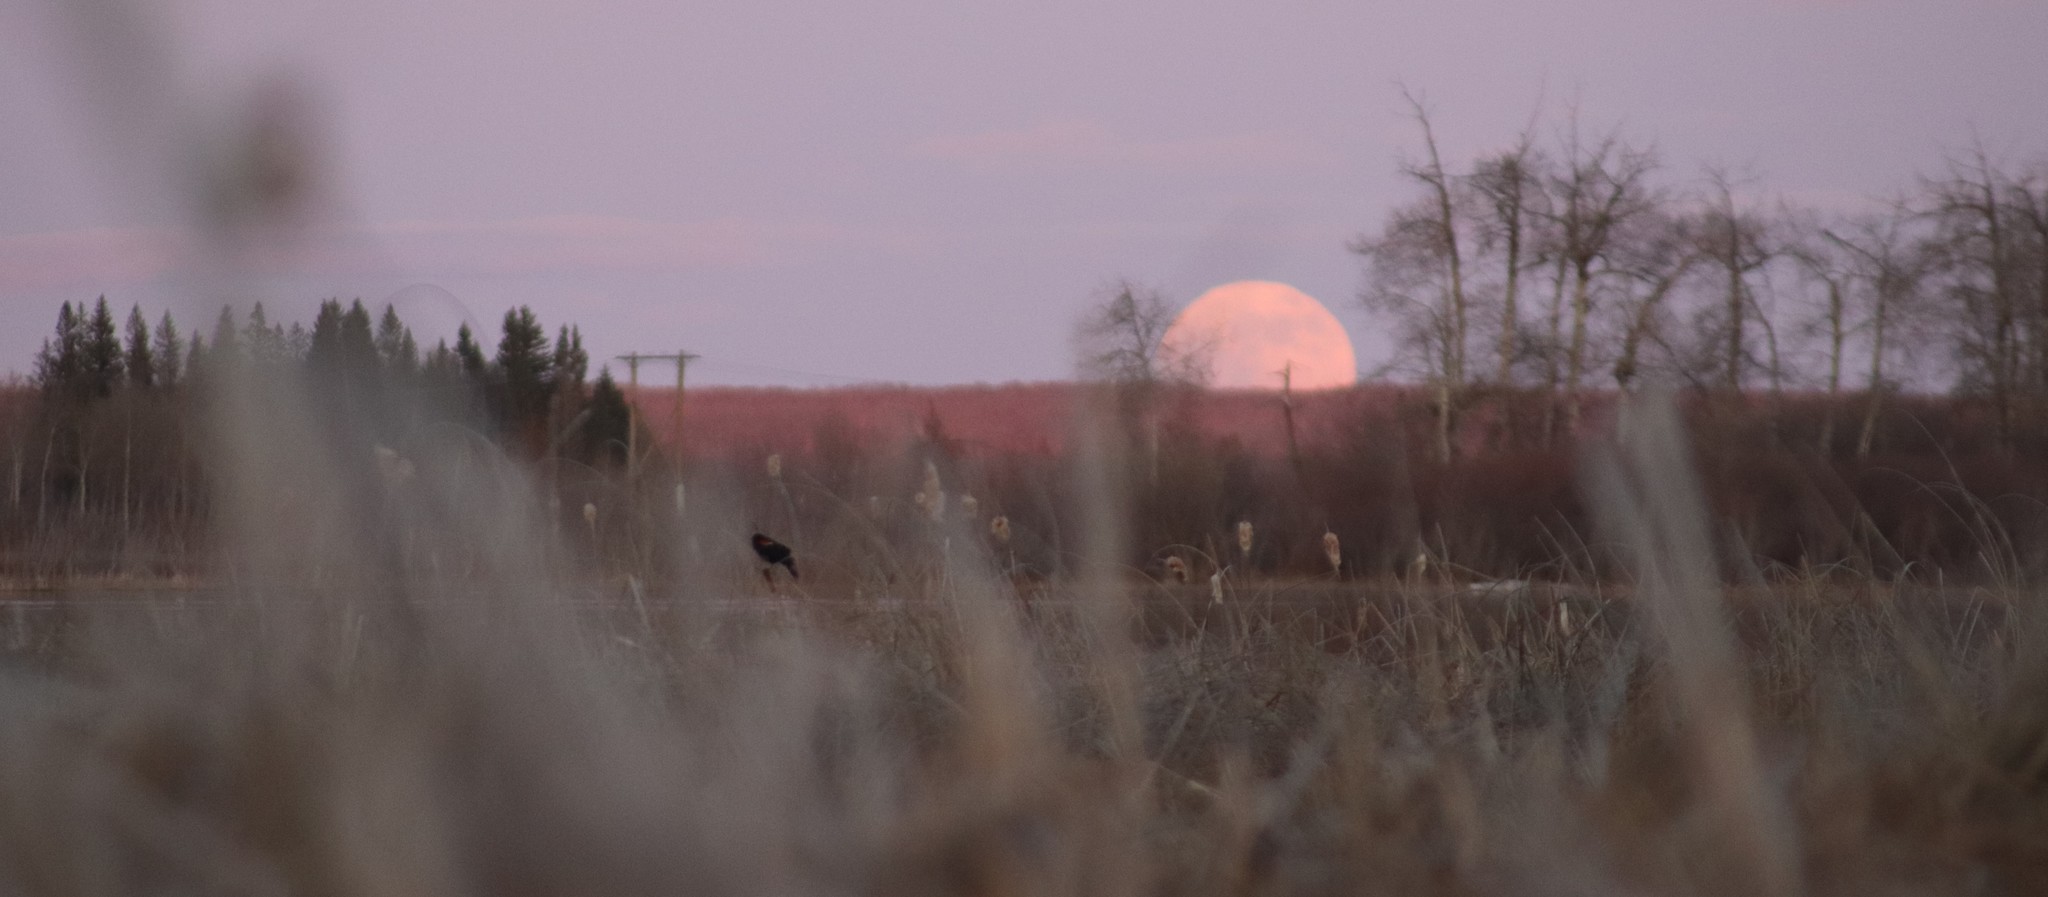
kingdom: Animalia
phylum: Chordata
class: Aves
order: Passeriformes
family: Icteridae
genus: Agelaius
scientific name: Agelaius phoeniceus
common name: Red-winged blackbird
